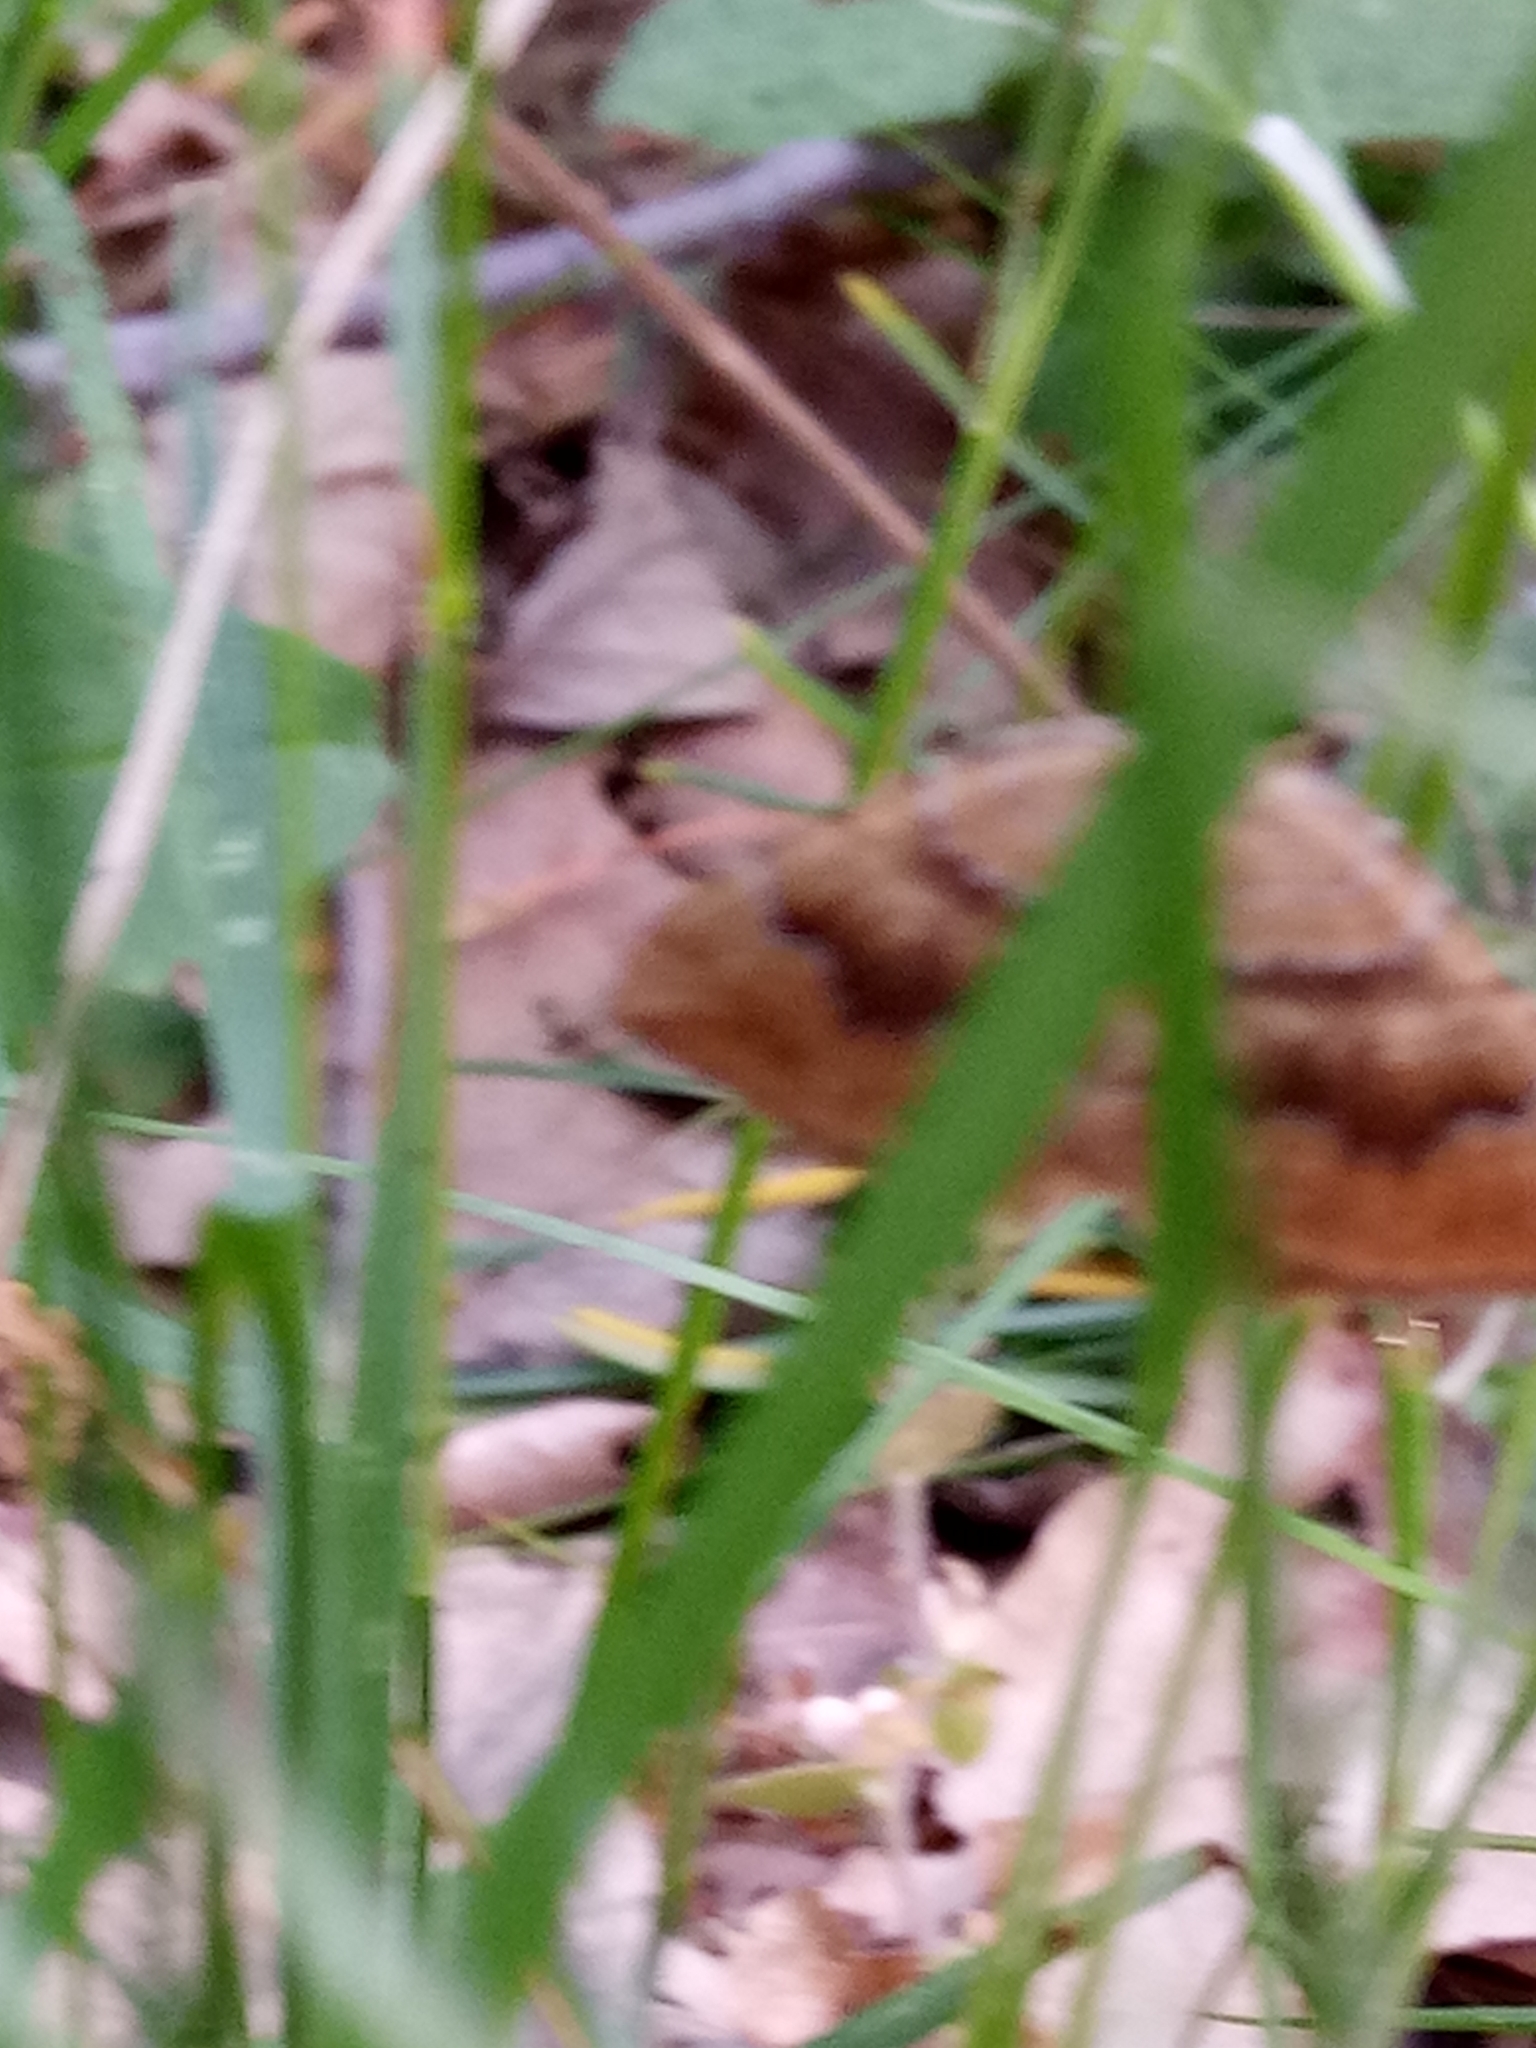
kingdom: Animalia
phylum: Arthropoda
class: Insecta
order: Lepidoptera
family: Geometridae
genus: Camptogramma
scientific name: Camptogramma bilineata
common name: Yellow shell
